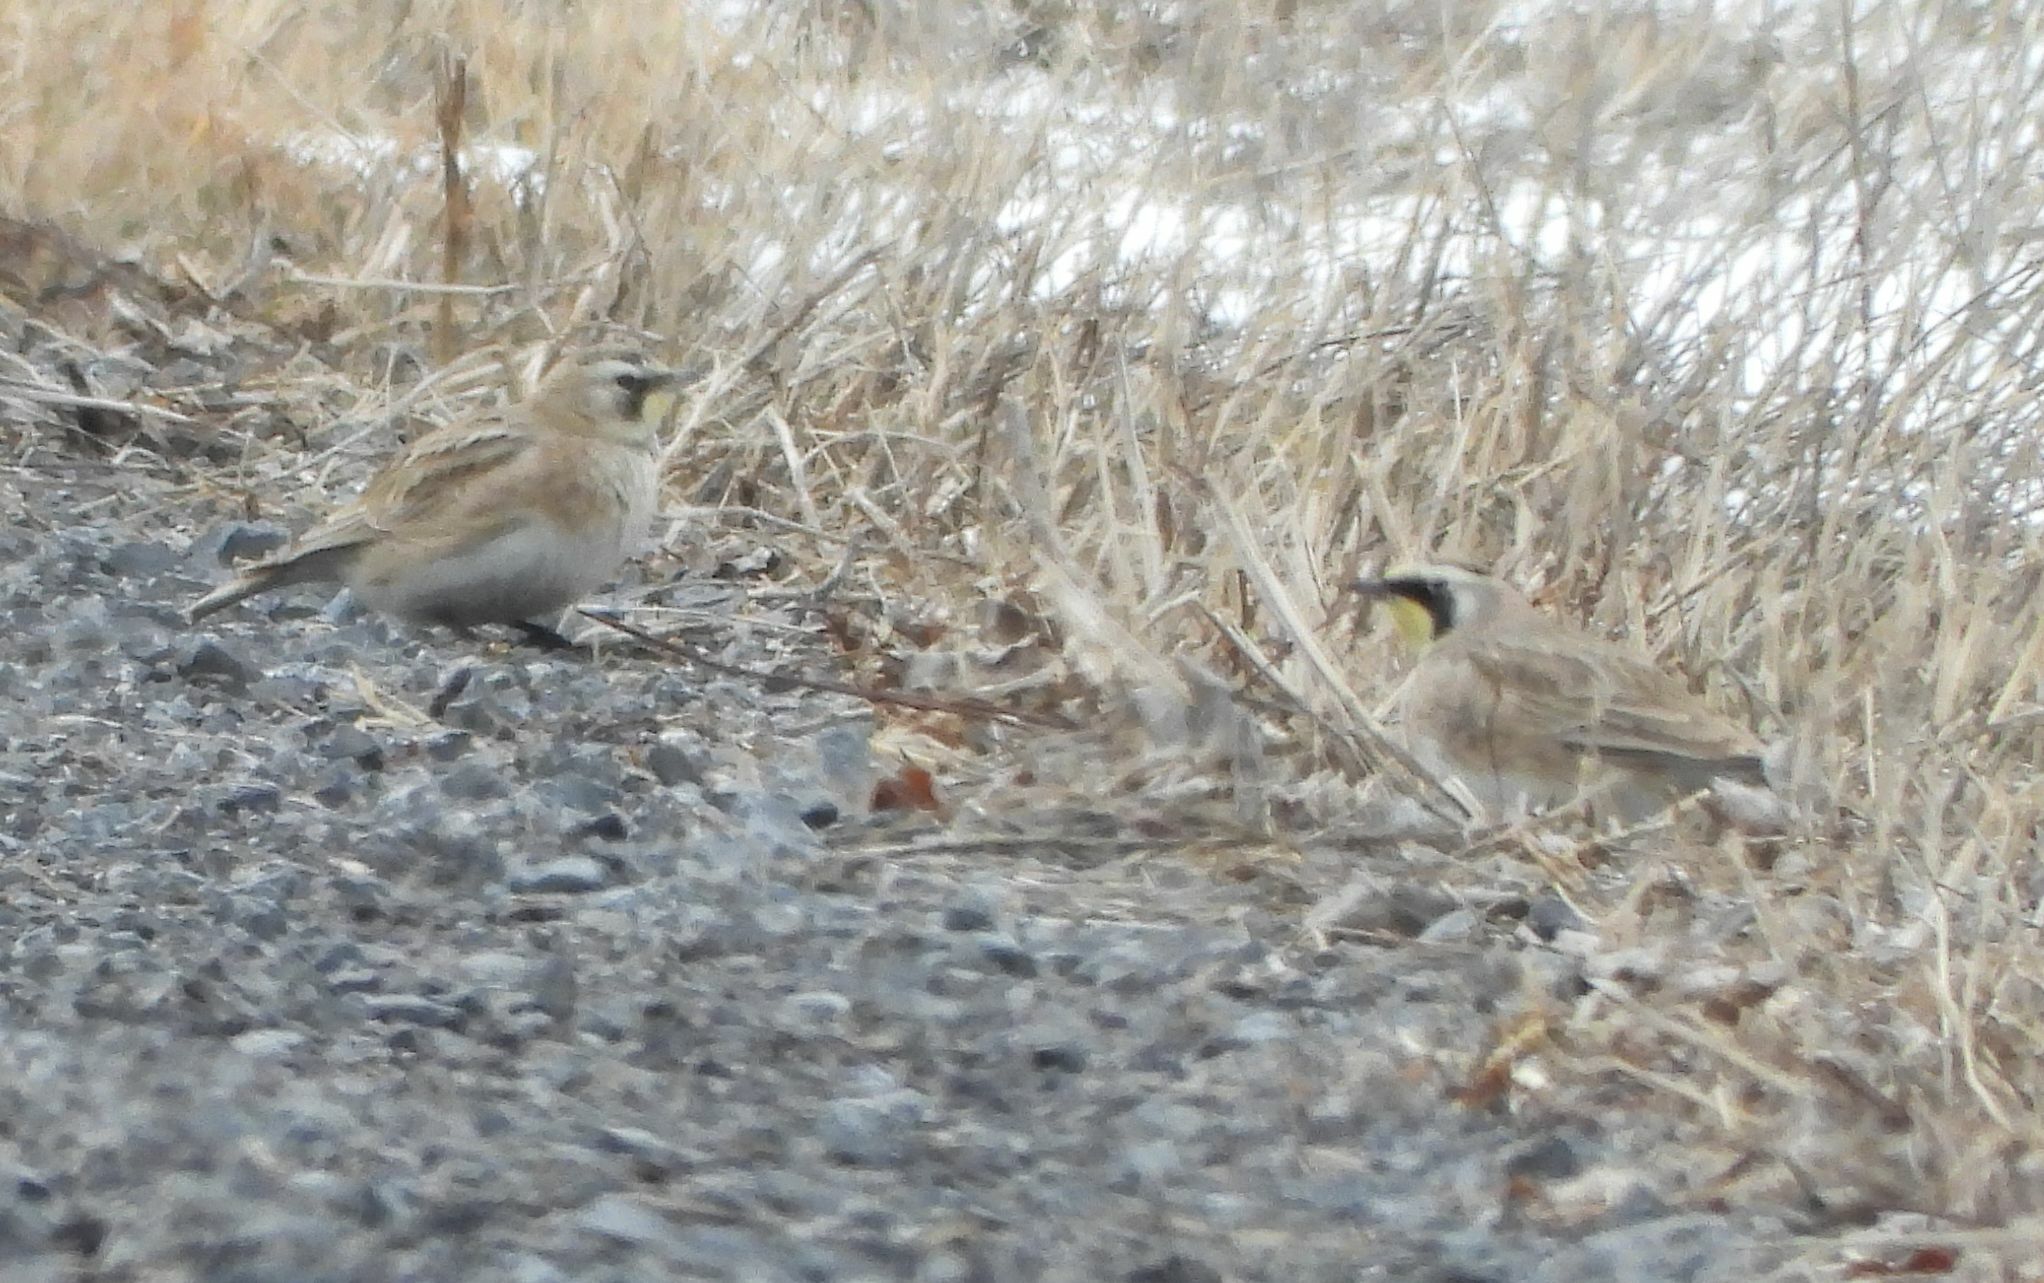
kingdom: Animalia
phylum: Chordata
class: Aves
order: Passeriformes
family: Alaudidae
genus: Eremophila
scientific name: Eremophila alpestris
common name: Horned lark
